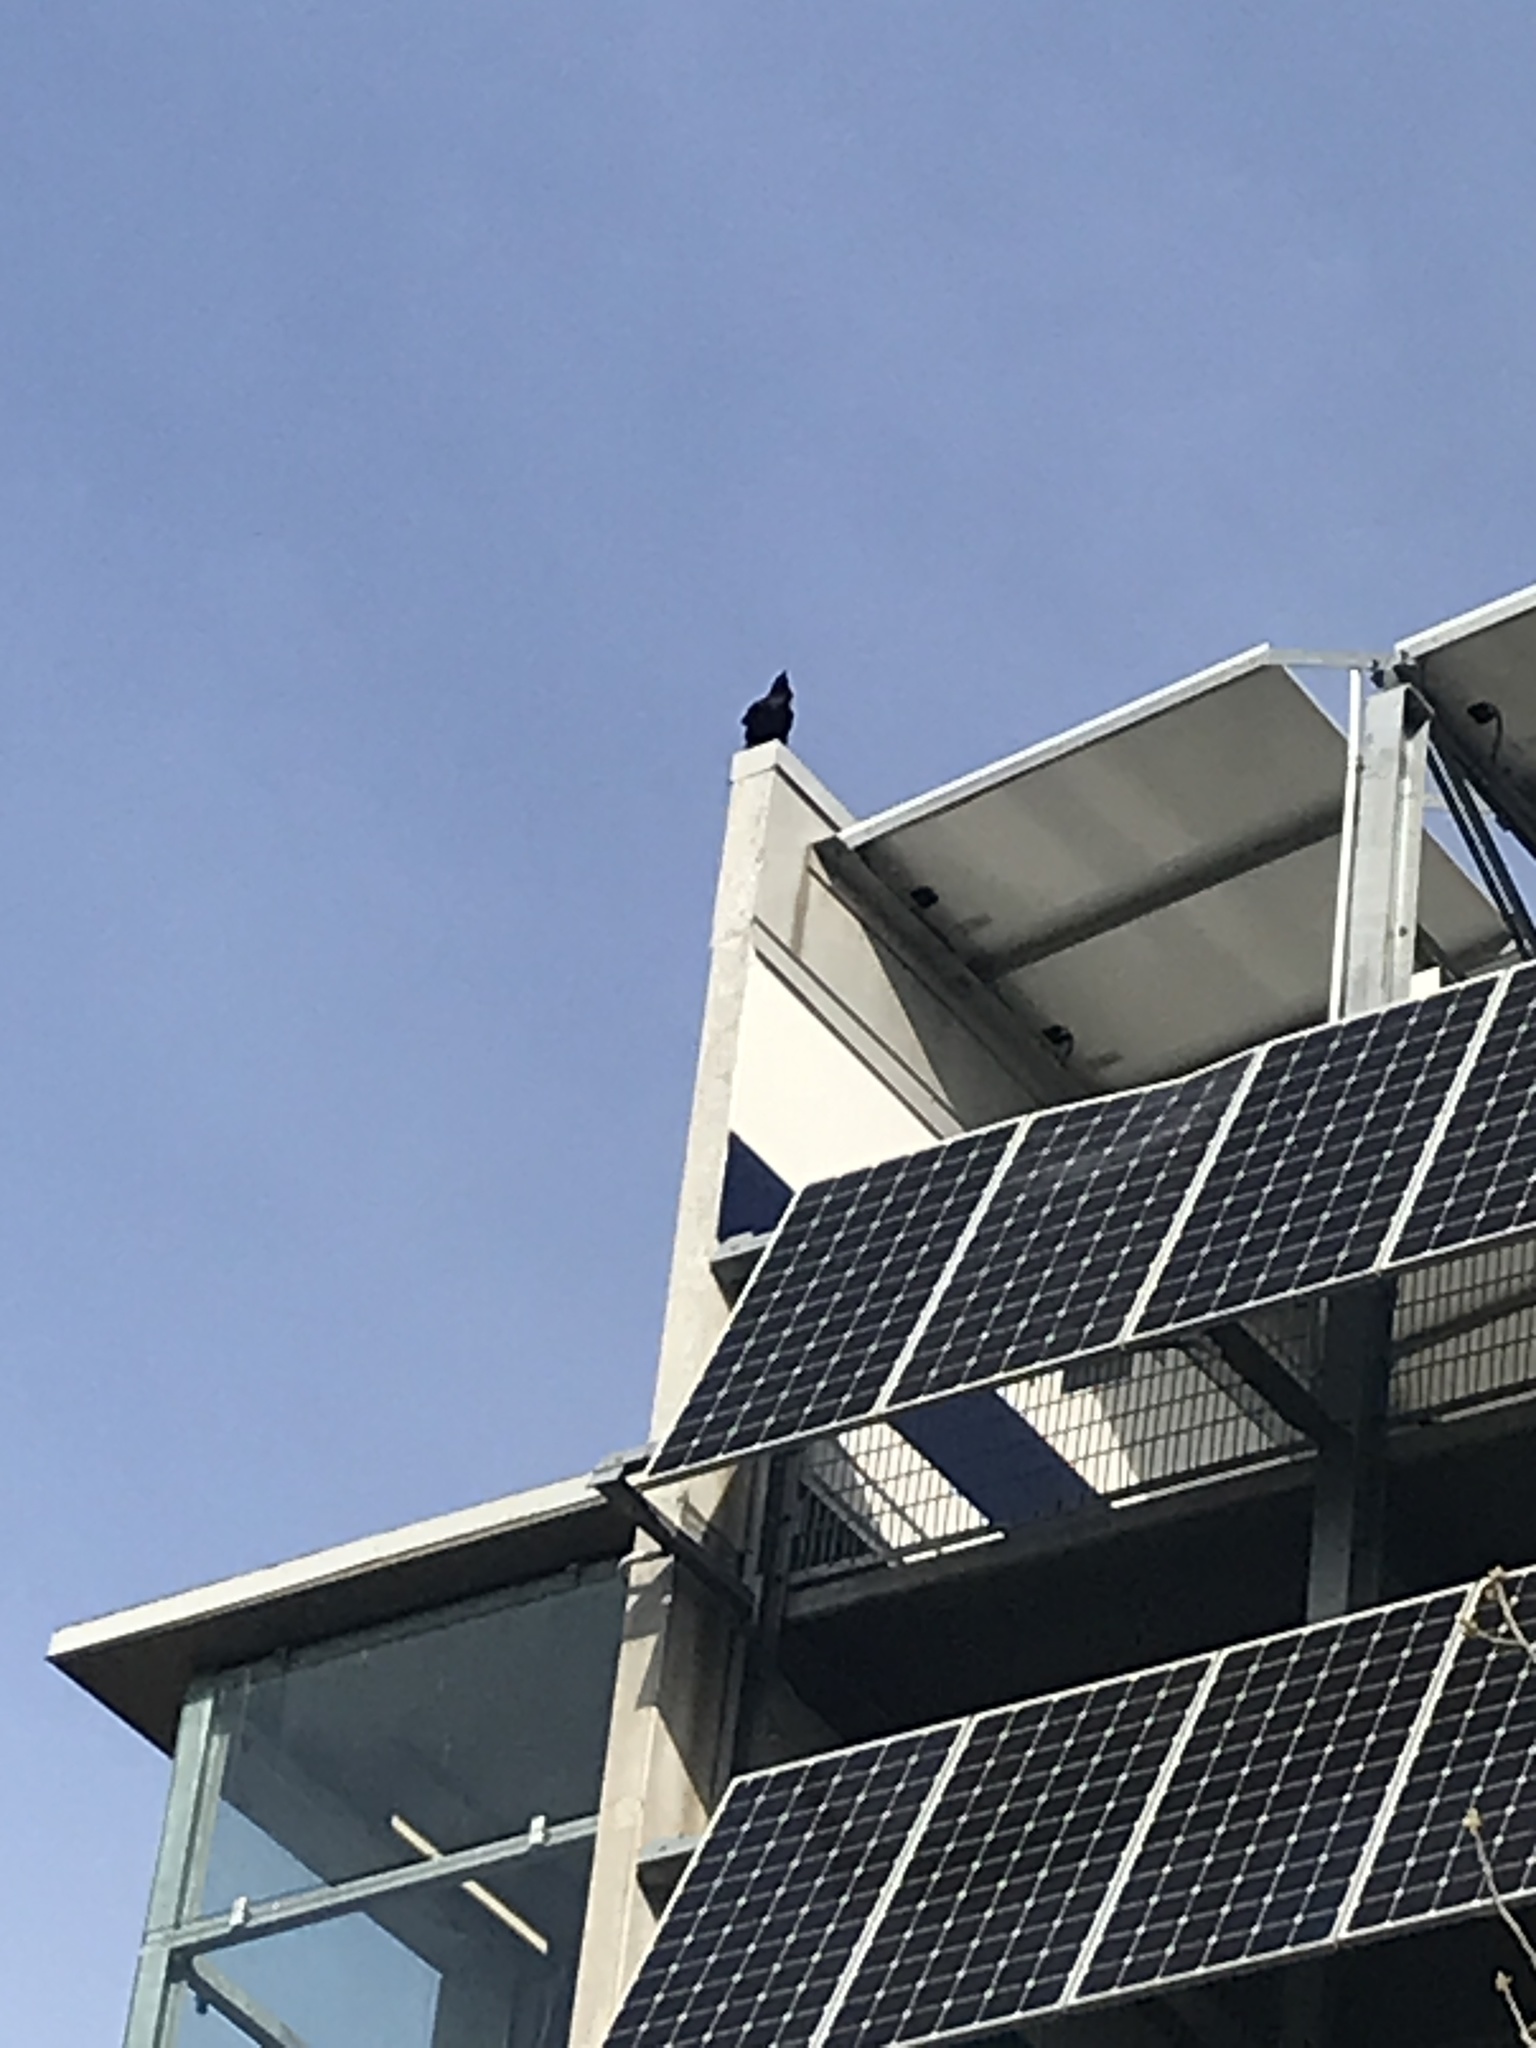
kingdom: Animalia
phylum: Chordata
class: Aves
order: Passeriformes
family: Corvidae
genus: Corvus
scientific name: Corvus corax
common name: Common raven
